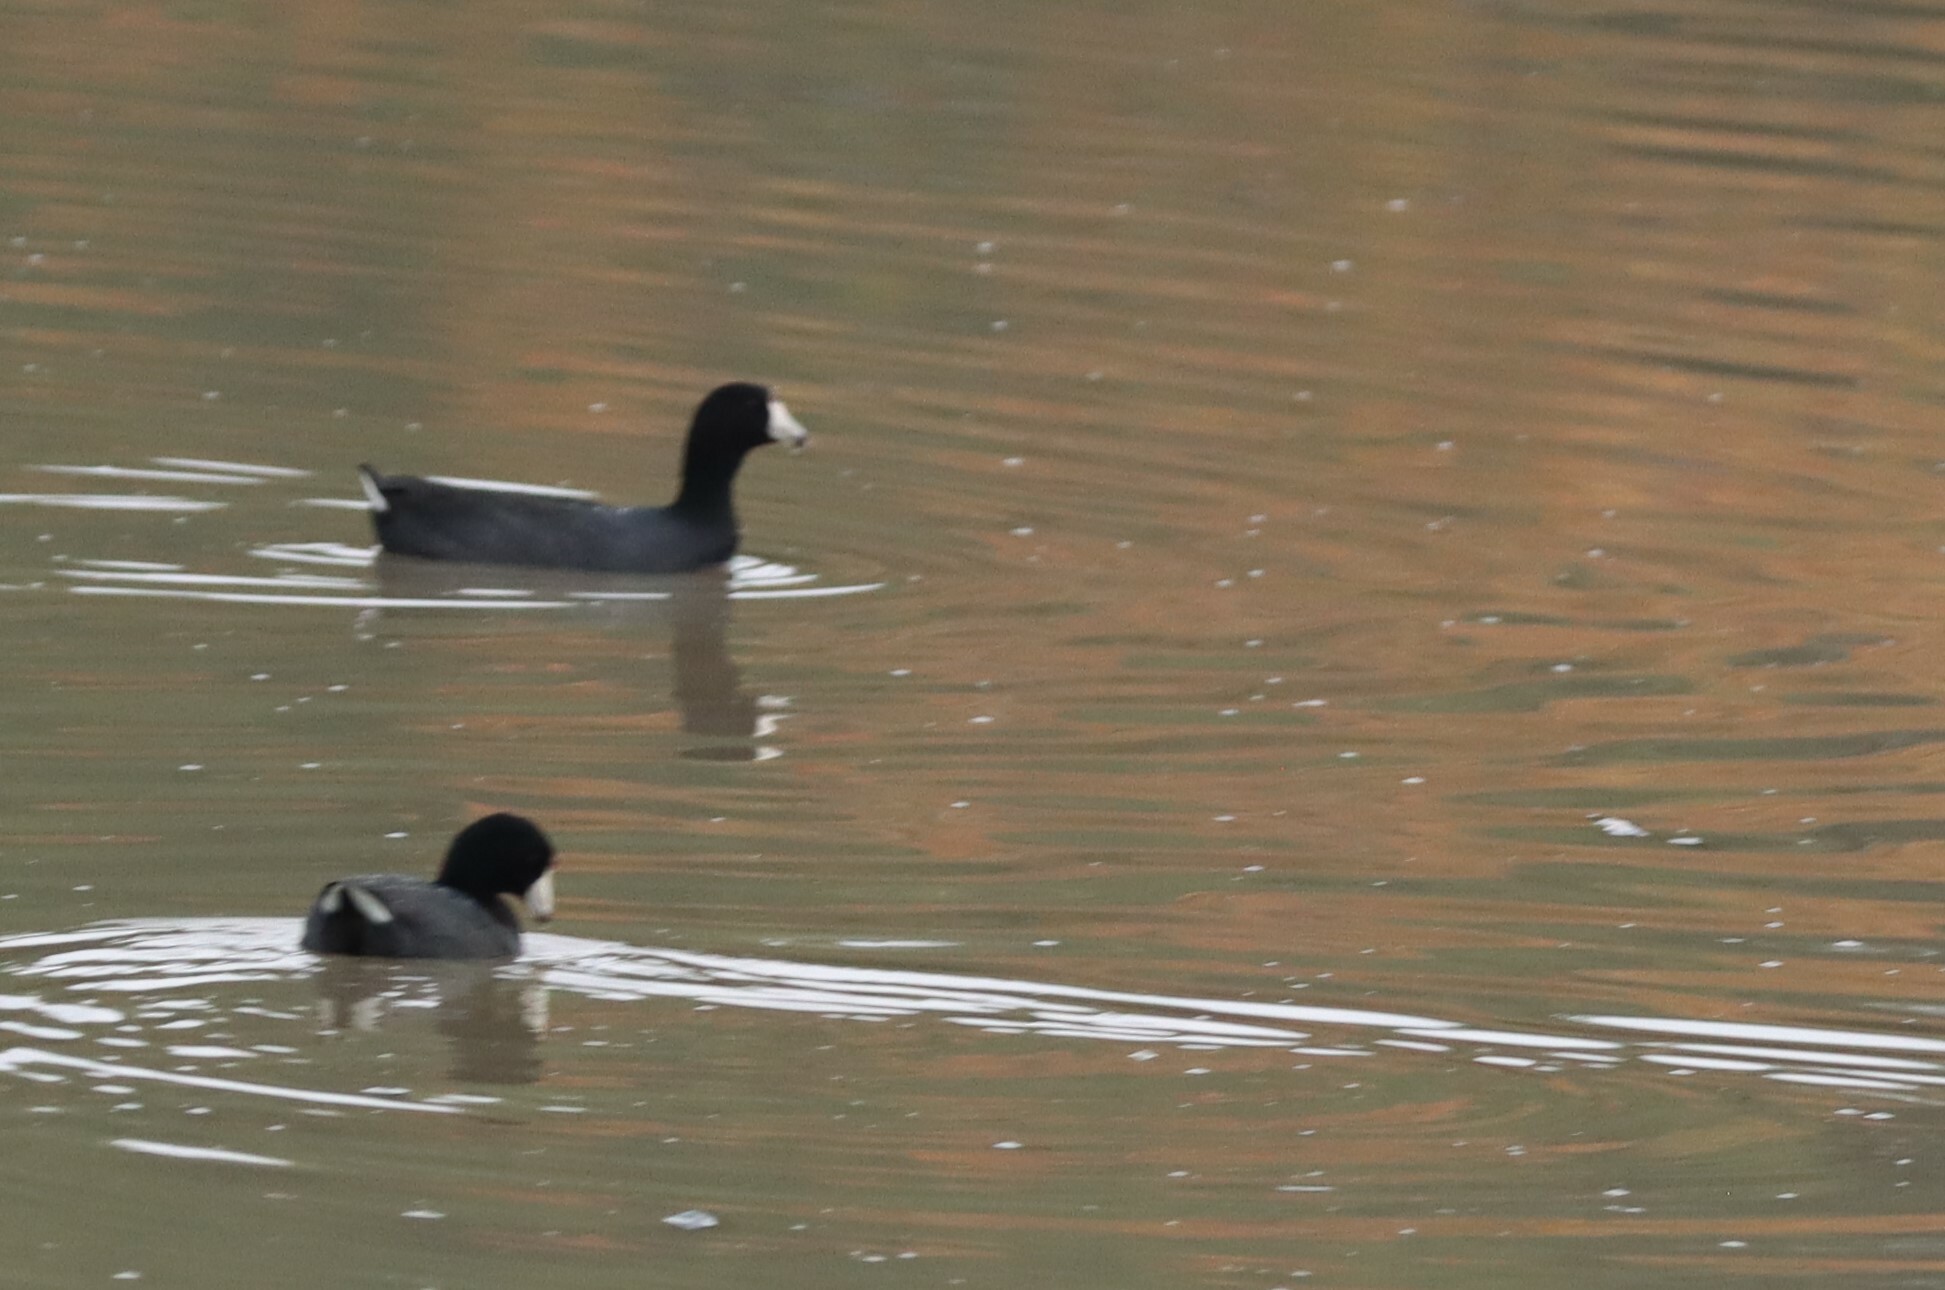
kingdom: Animalia
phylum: Chordata
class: Aves
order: Gruiformes
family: Rallidae
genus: Fulica
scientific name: Fulica americana
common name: American coot
